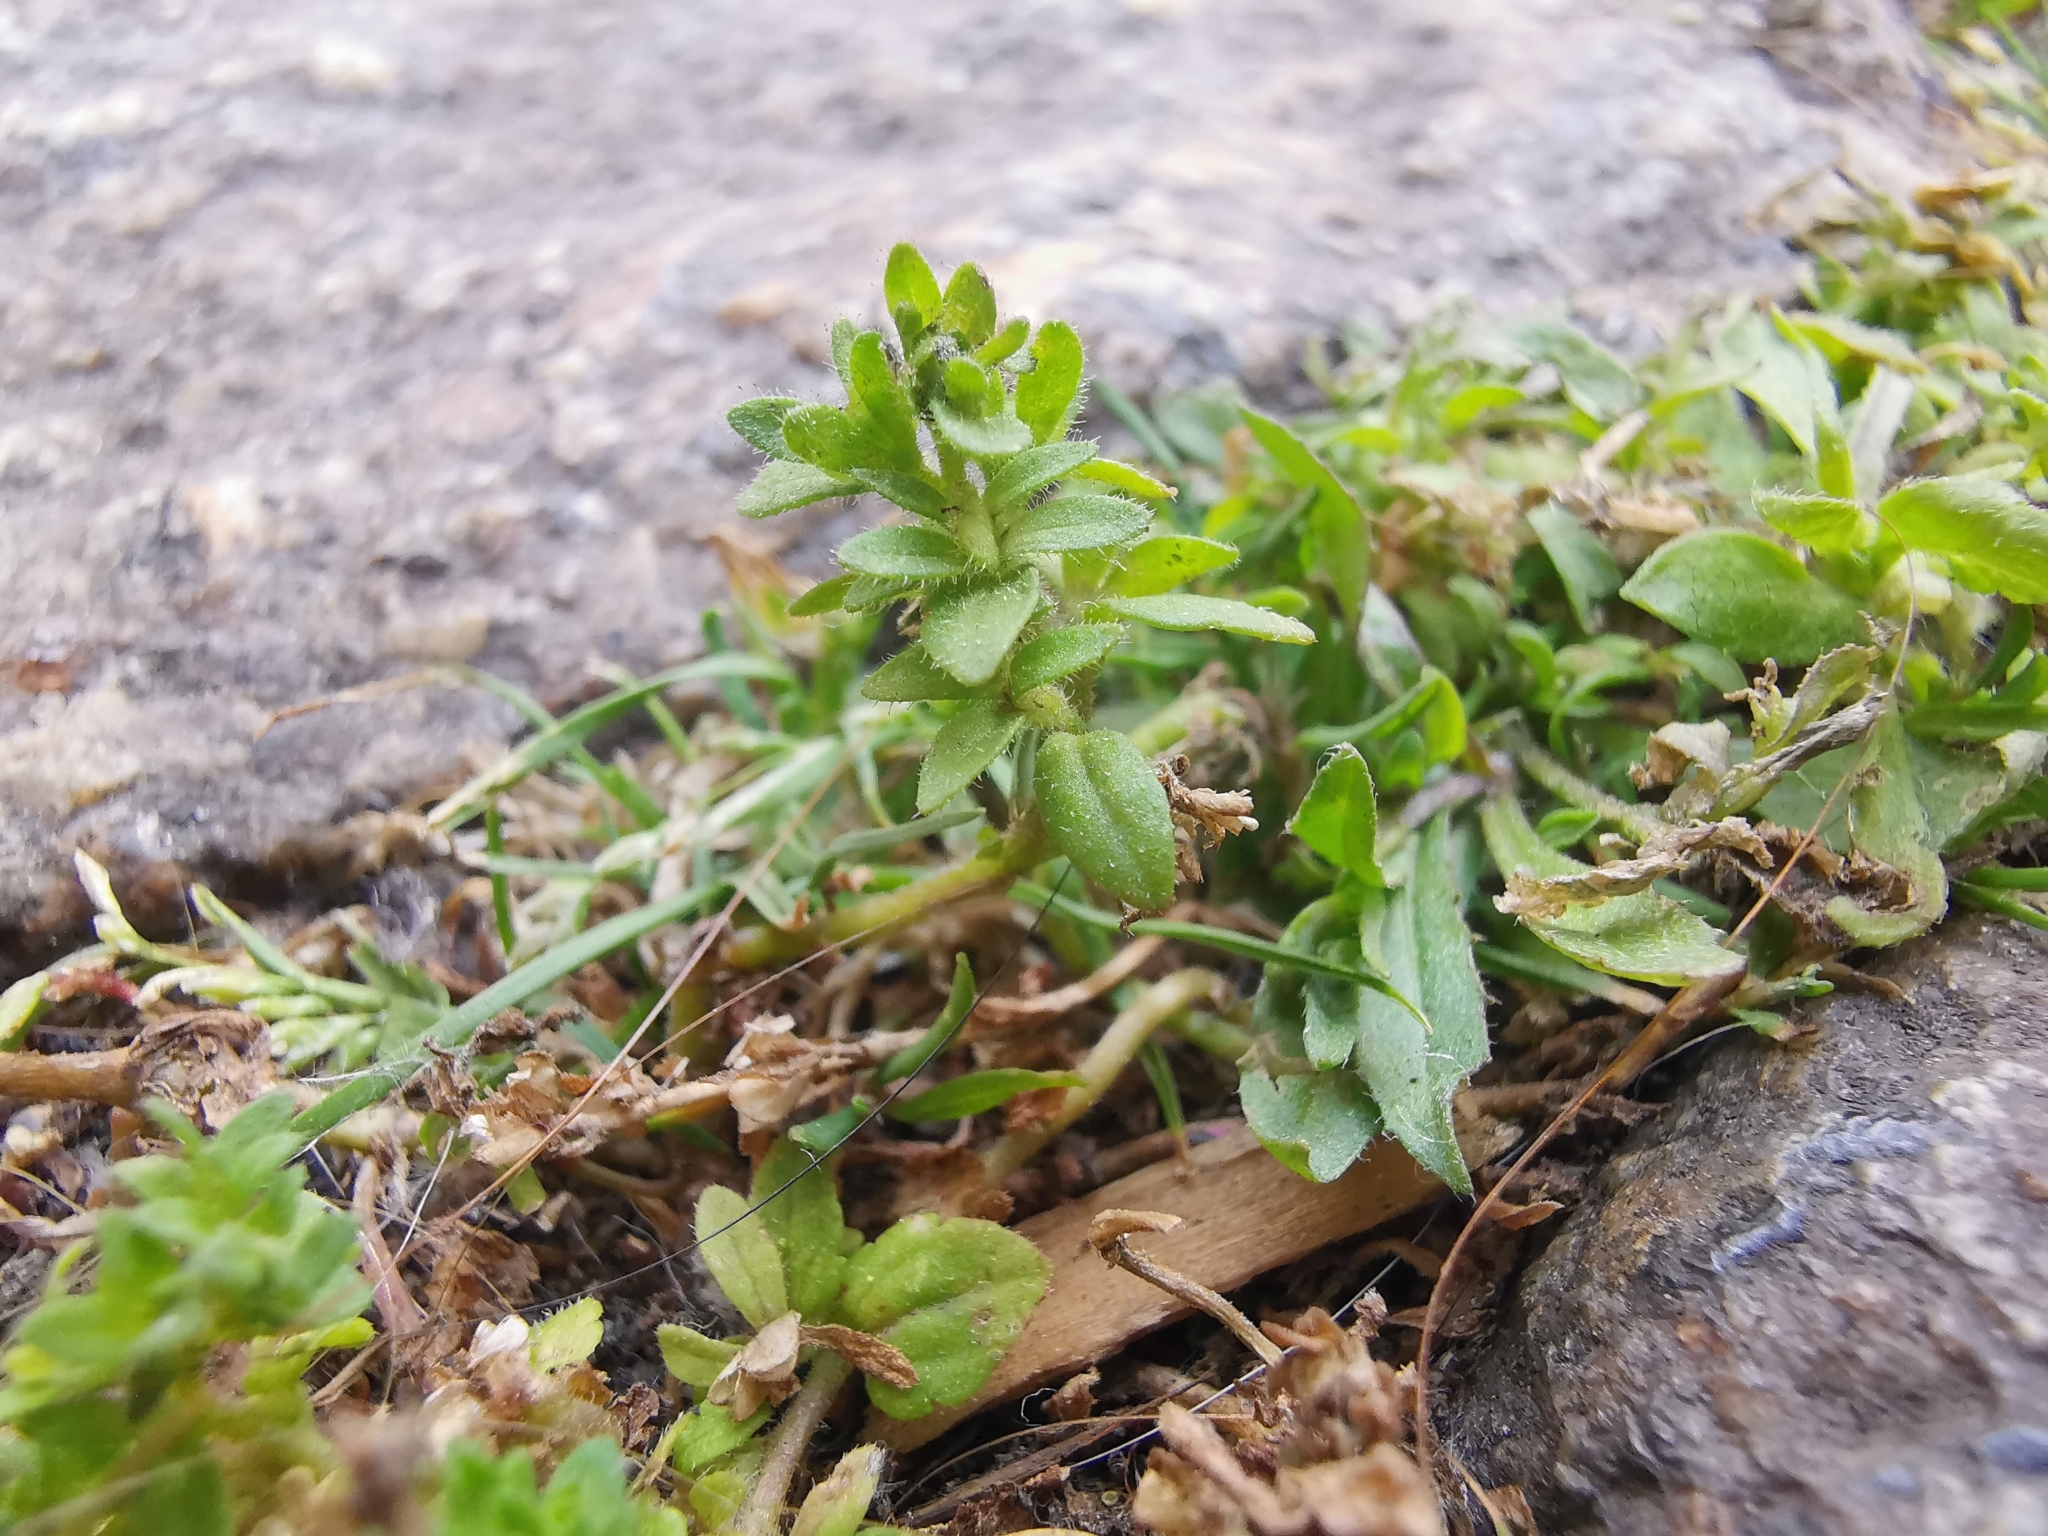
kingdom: Plantae
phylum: Tracheophyta
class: Magnoliopsida
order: Lamiales
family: Plantaginaceae
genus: Veronica
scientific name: Veronica arvensis
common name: Corn speedwell
